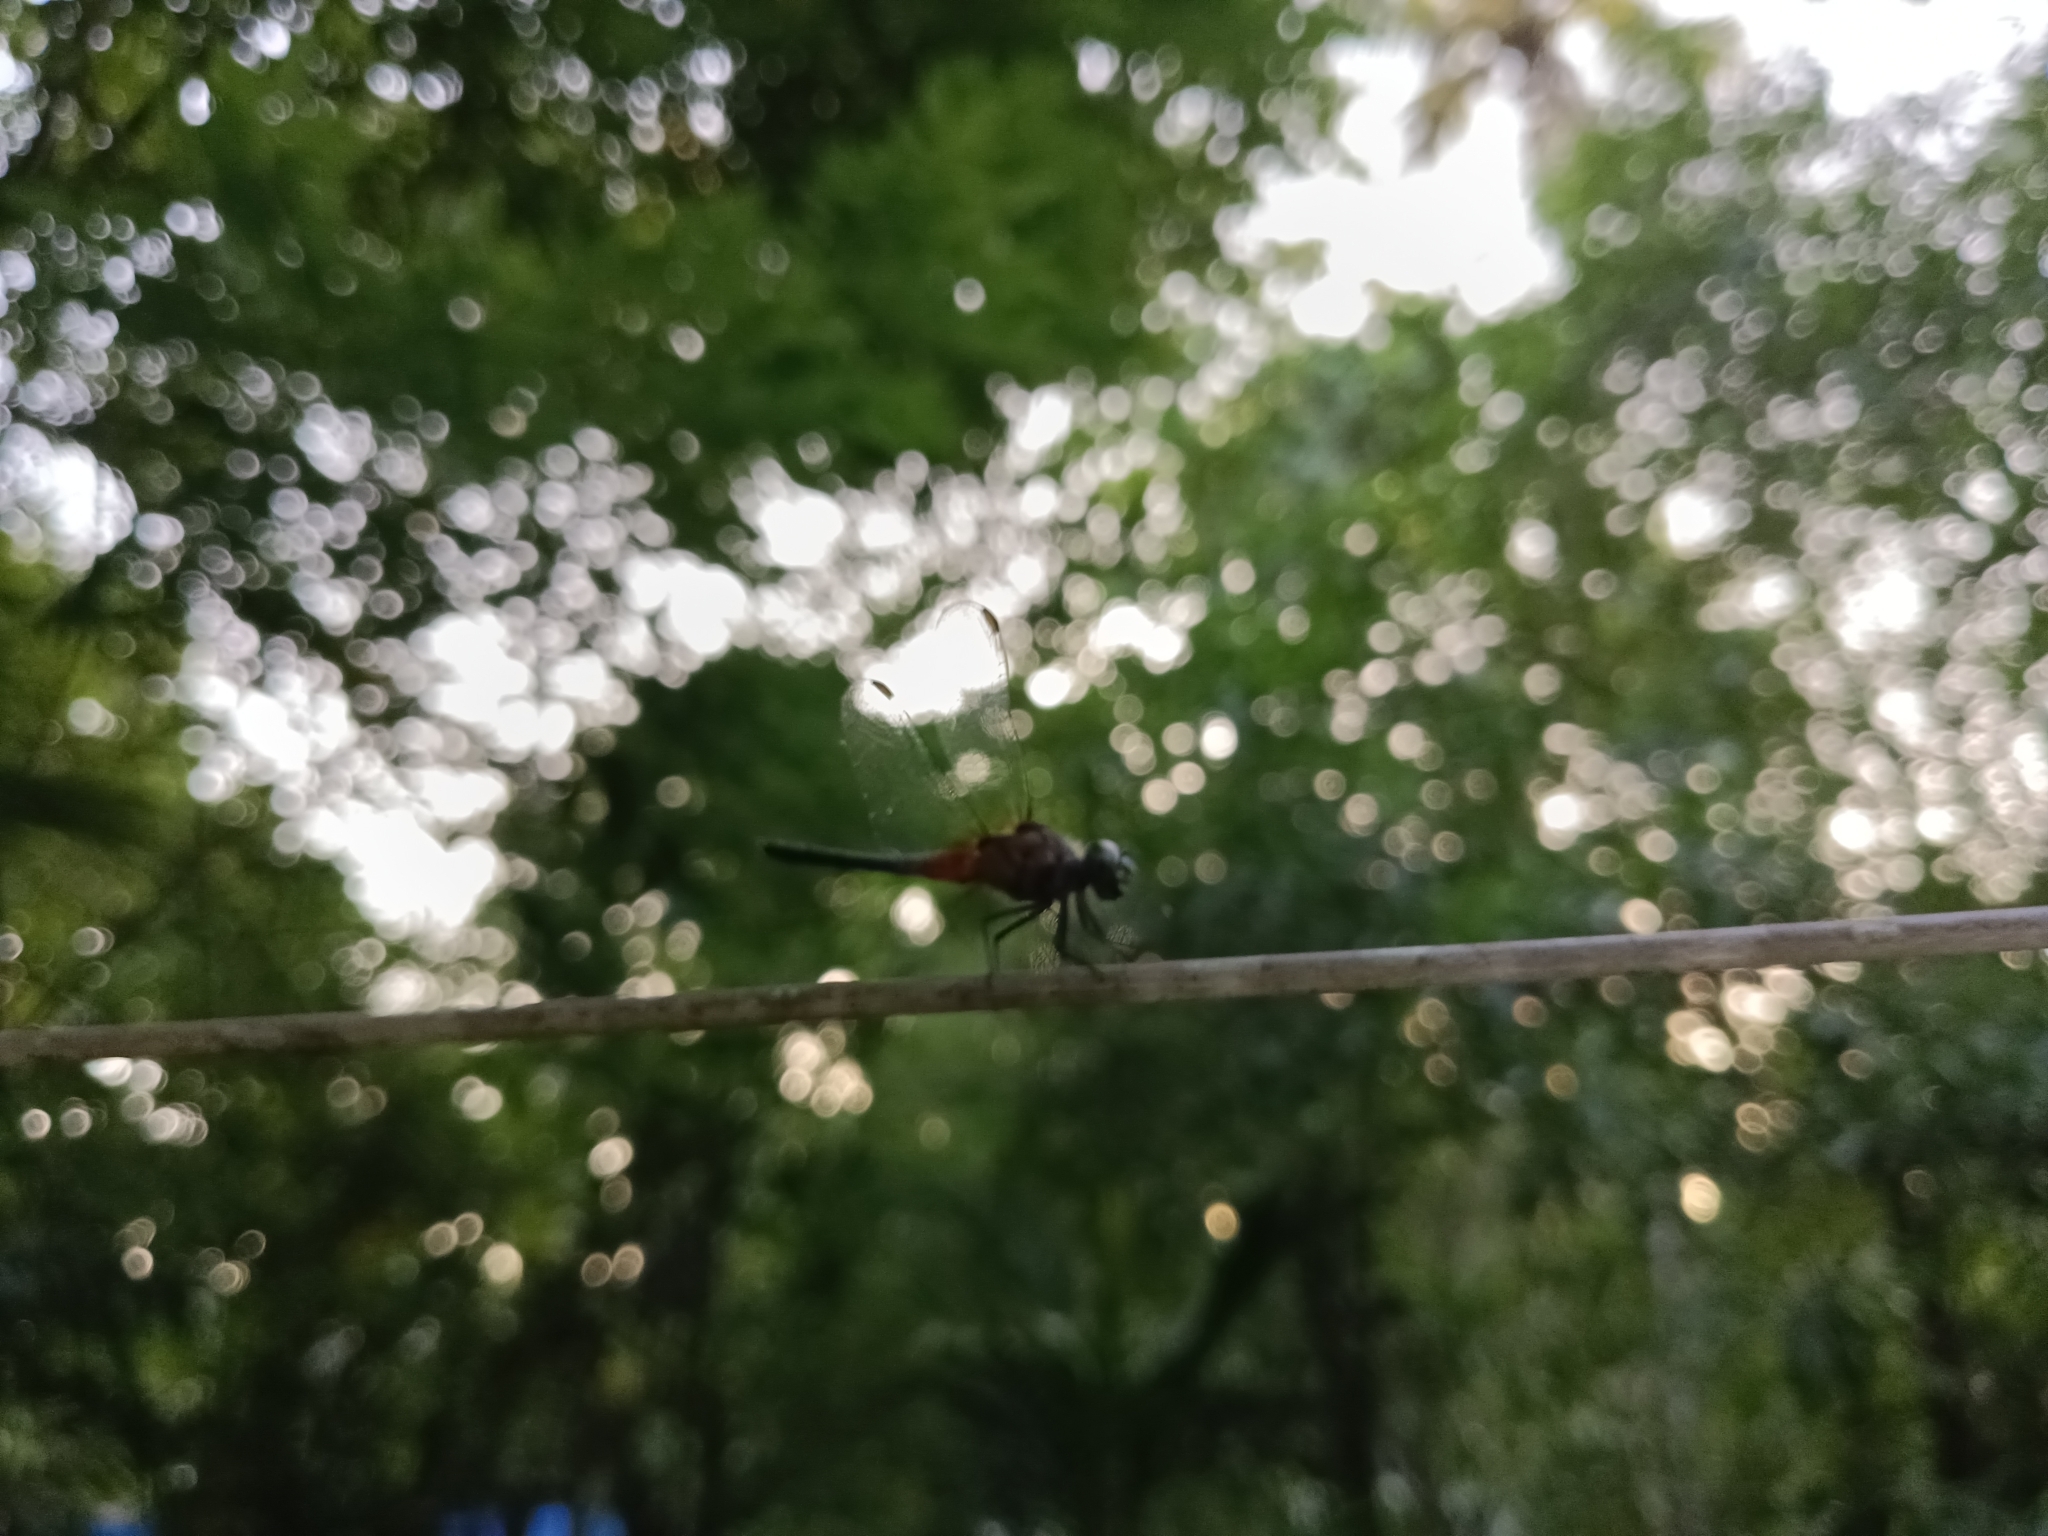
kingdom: Animalia
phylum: Arthropoda
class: Insecta
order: Odonata
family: Libellulidae
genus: Brachydiplax
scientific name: Brachydiplax chalybea
